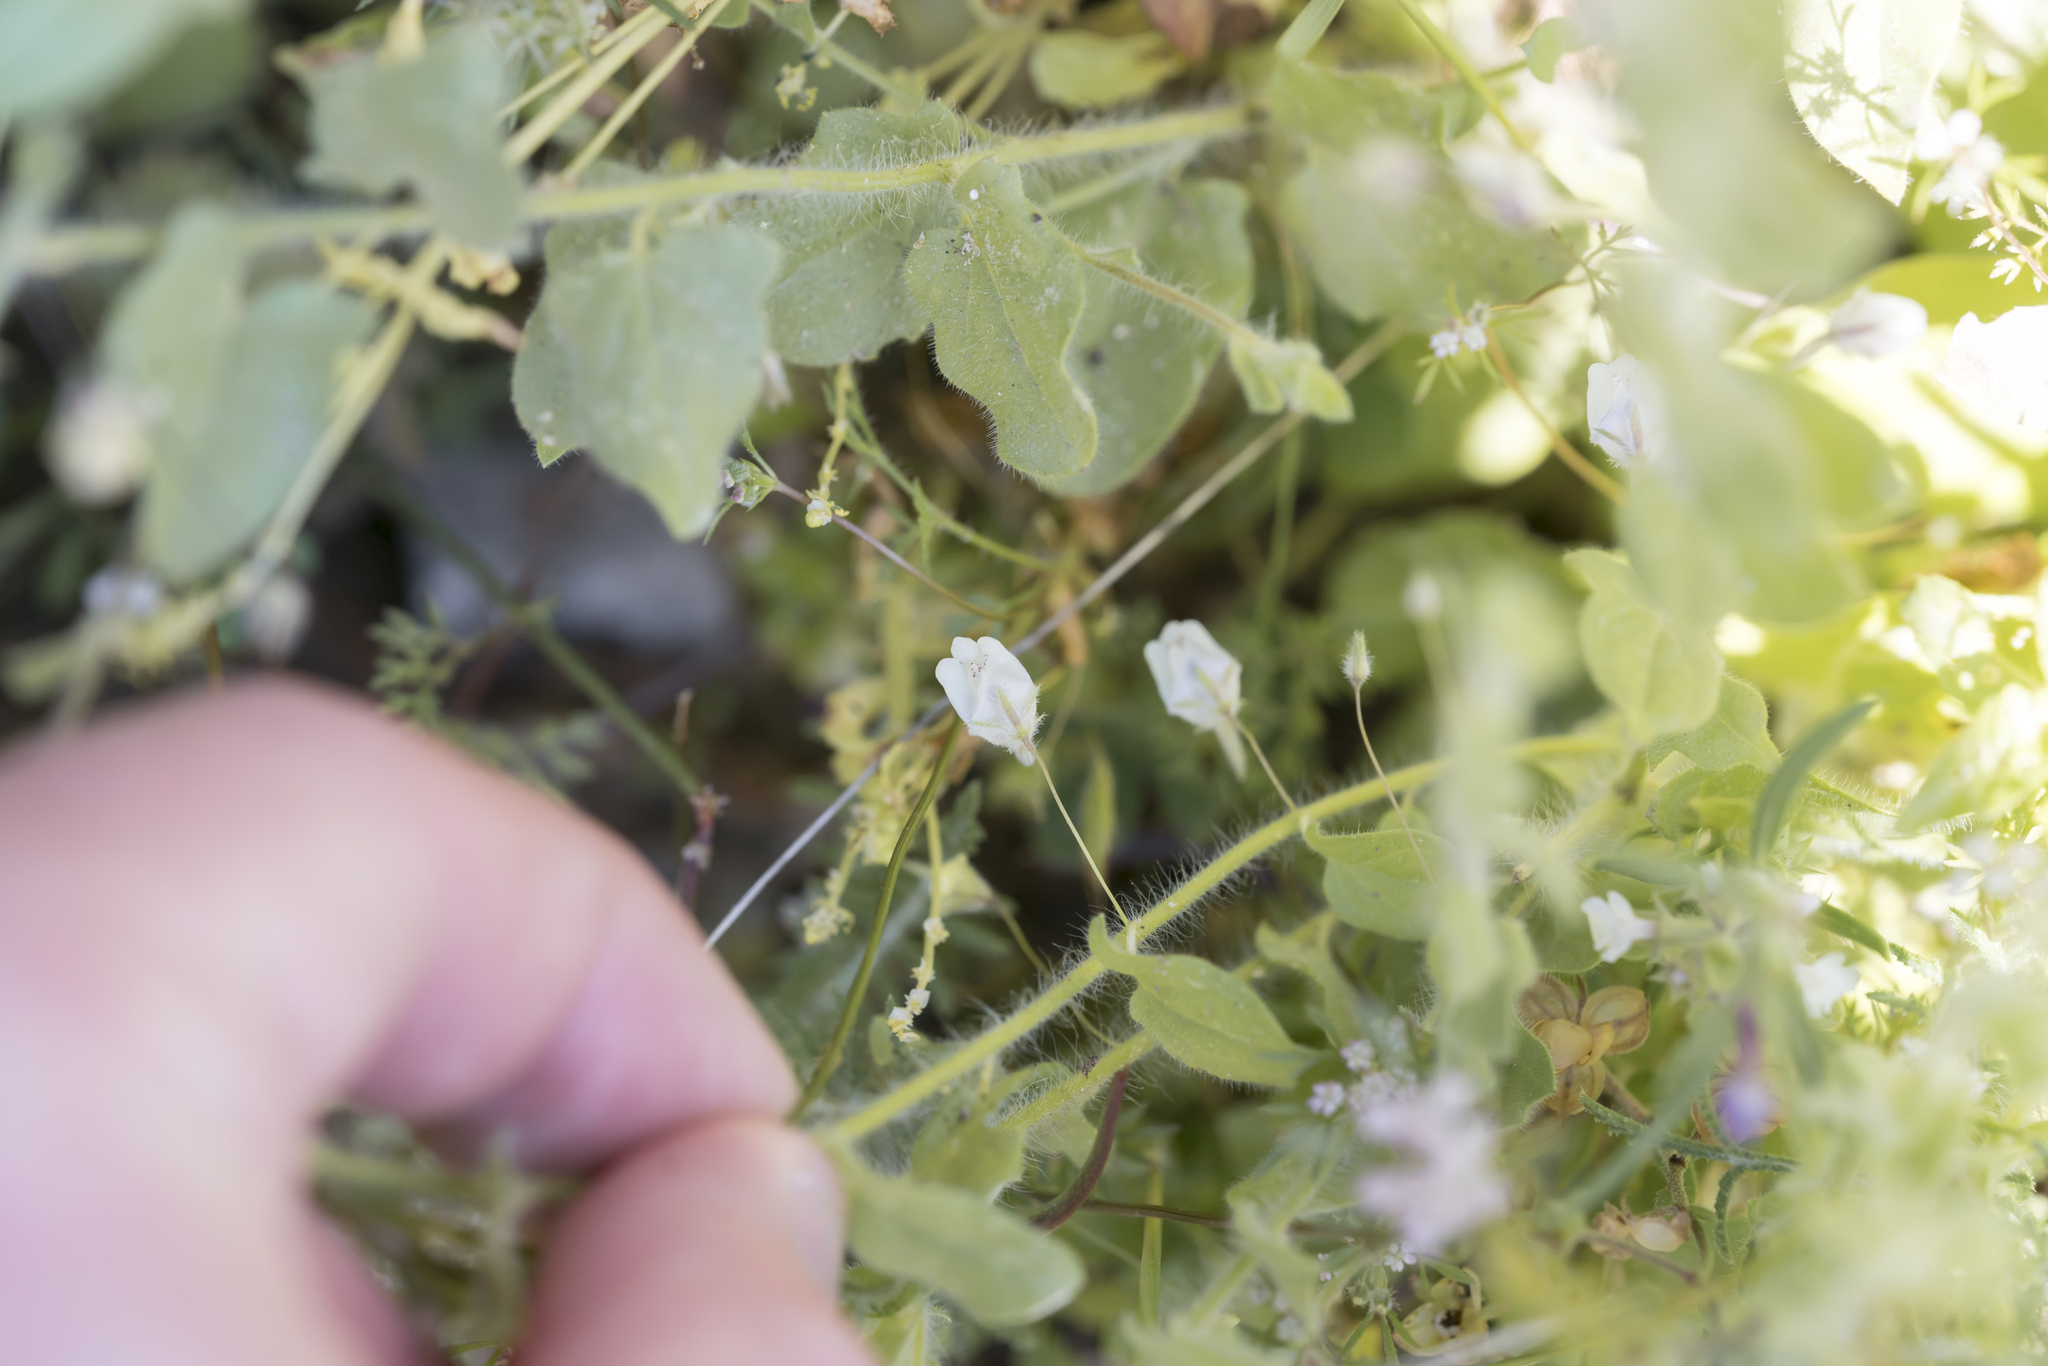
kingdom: Plantae
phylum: Tracheophyta
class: Magnoliopsida
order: Lamiales
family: Plantaginaceae
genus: Kickxia
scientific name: Kickxia commutata
